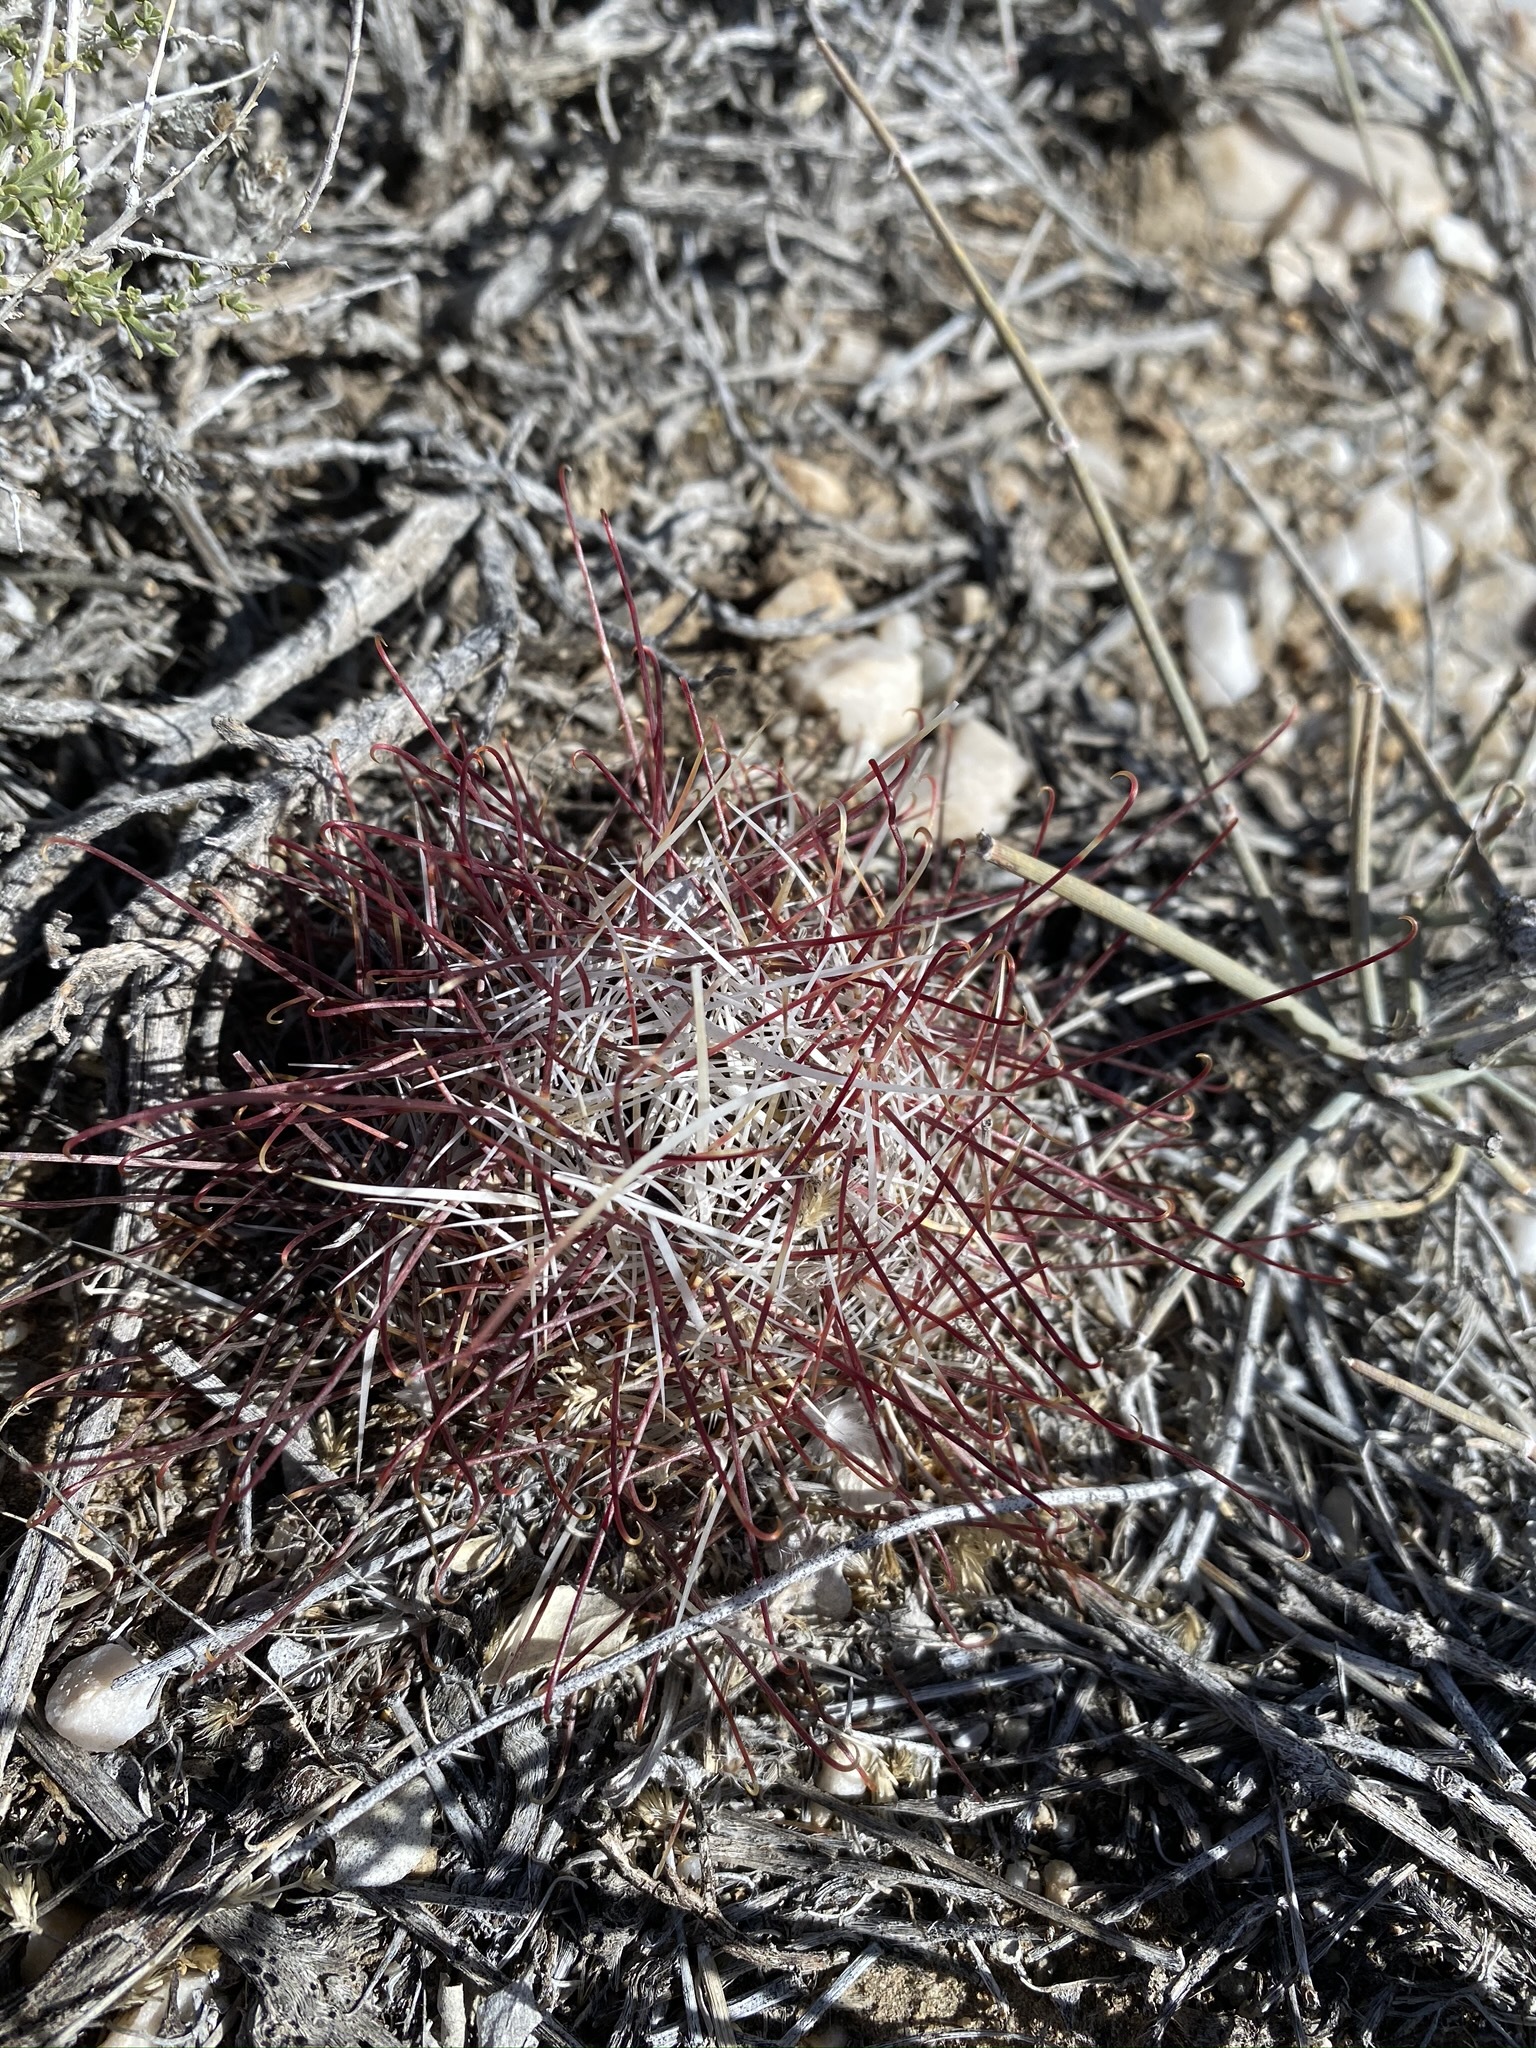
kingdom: Plantae
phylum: Tracheophyta
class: Magnoliopsida
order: Caryophyllales
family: Cactaceae
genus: Sclerocactus
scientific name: Sclerocactus polyancistrus
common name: Mohave fishhook cactus
